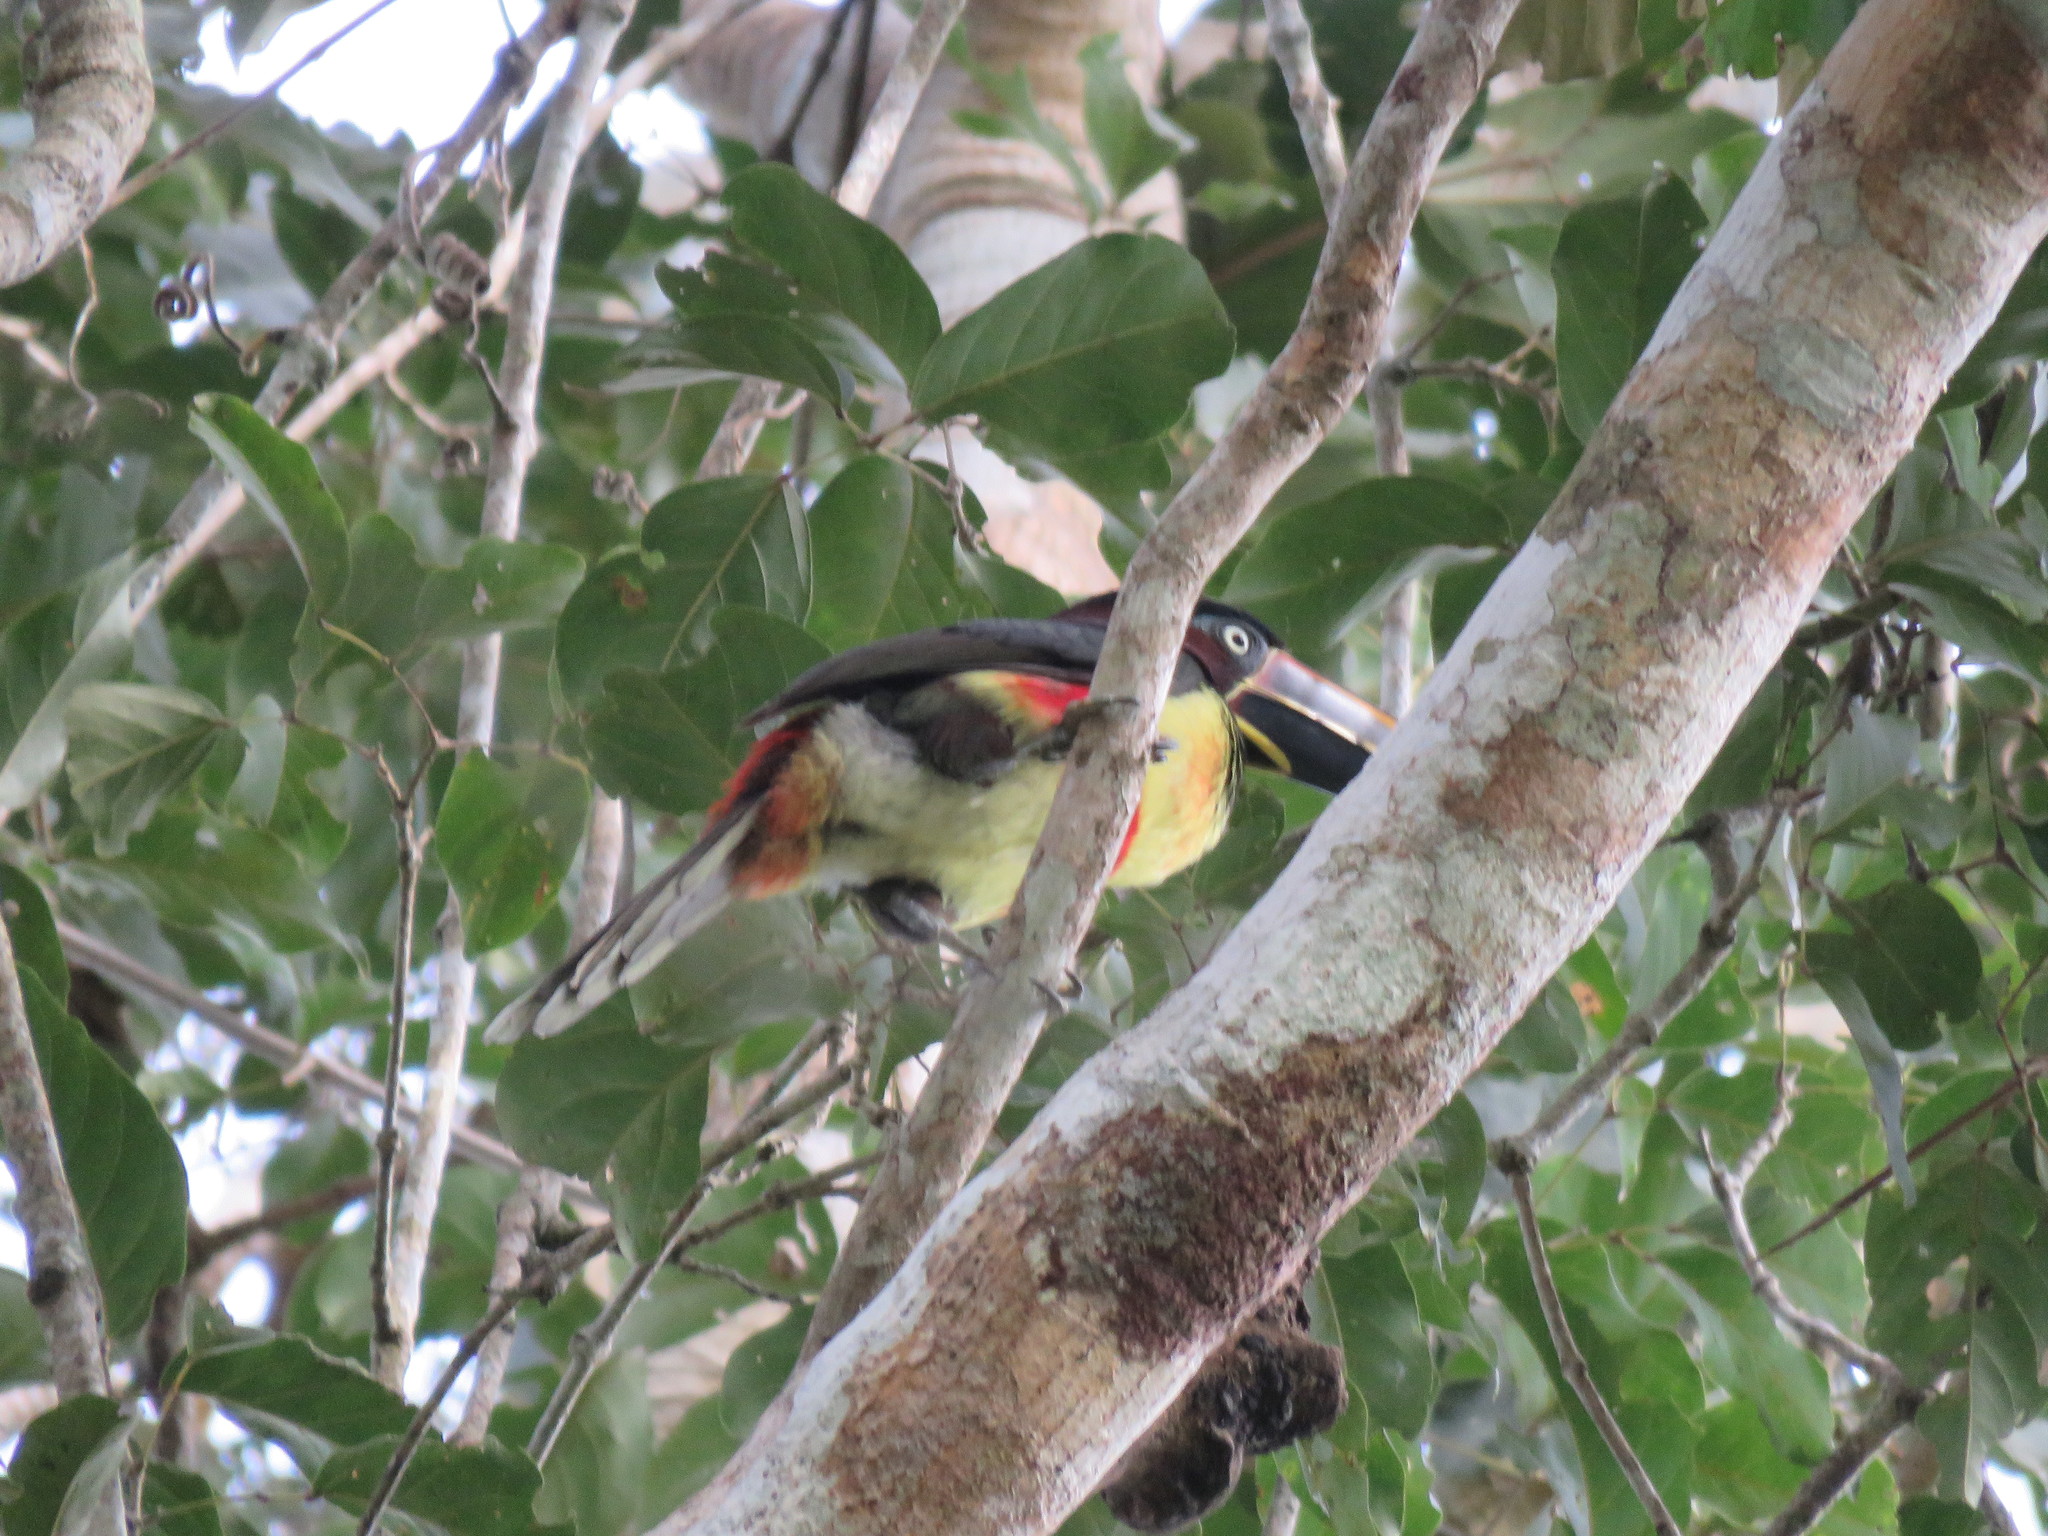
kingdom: Animalia
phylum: Chordata
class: Aves
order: Piciformes
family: Ramphastidae
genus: Pteroglossus
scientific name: Pteroglossus castanotis
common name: Chestnut-eared aracari
